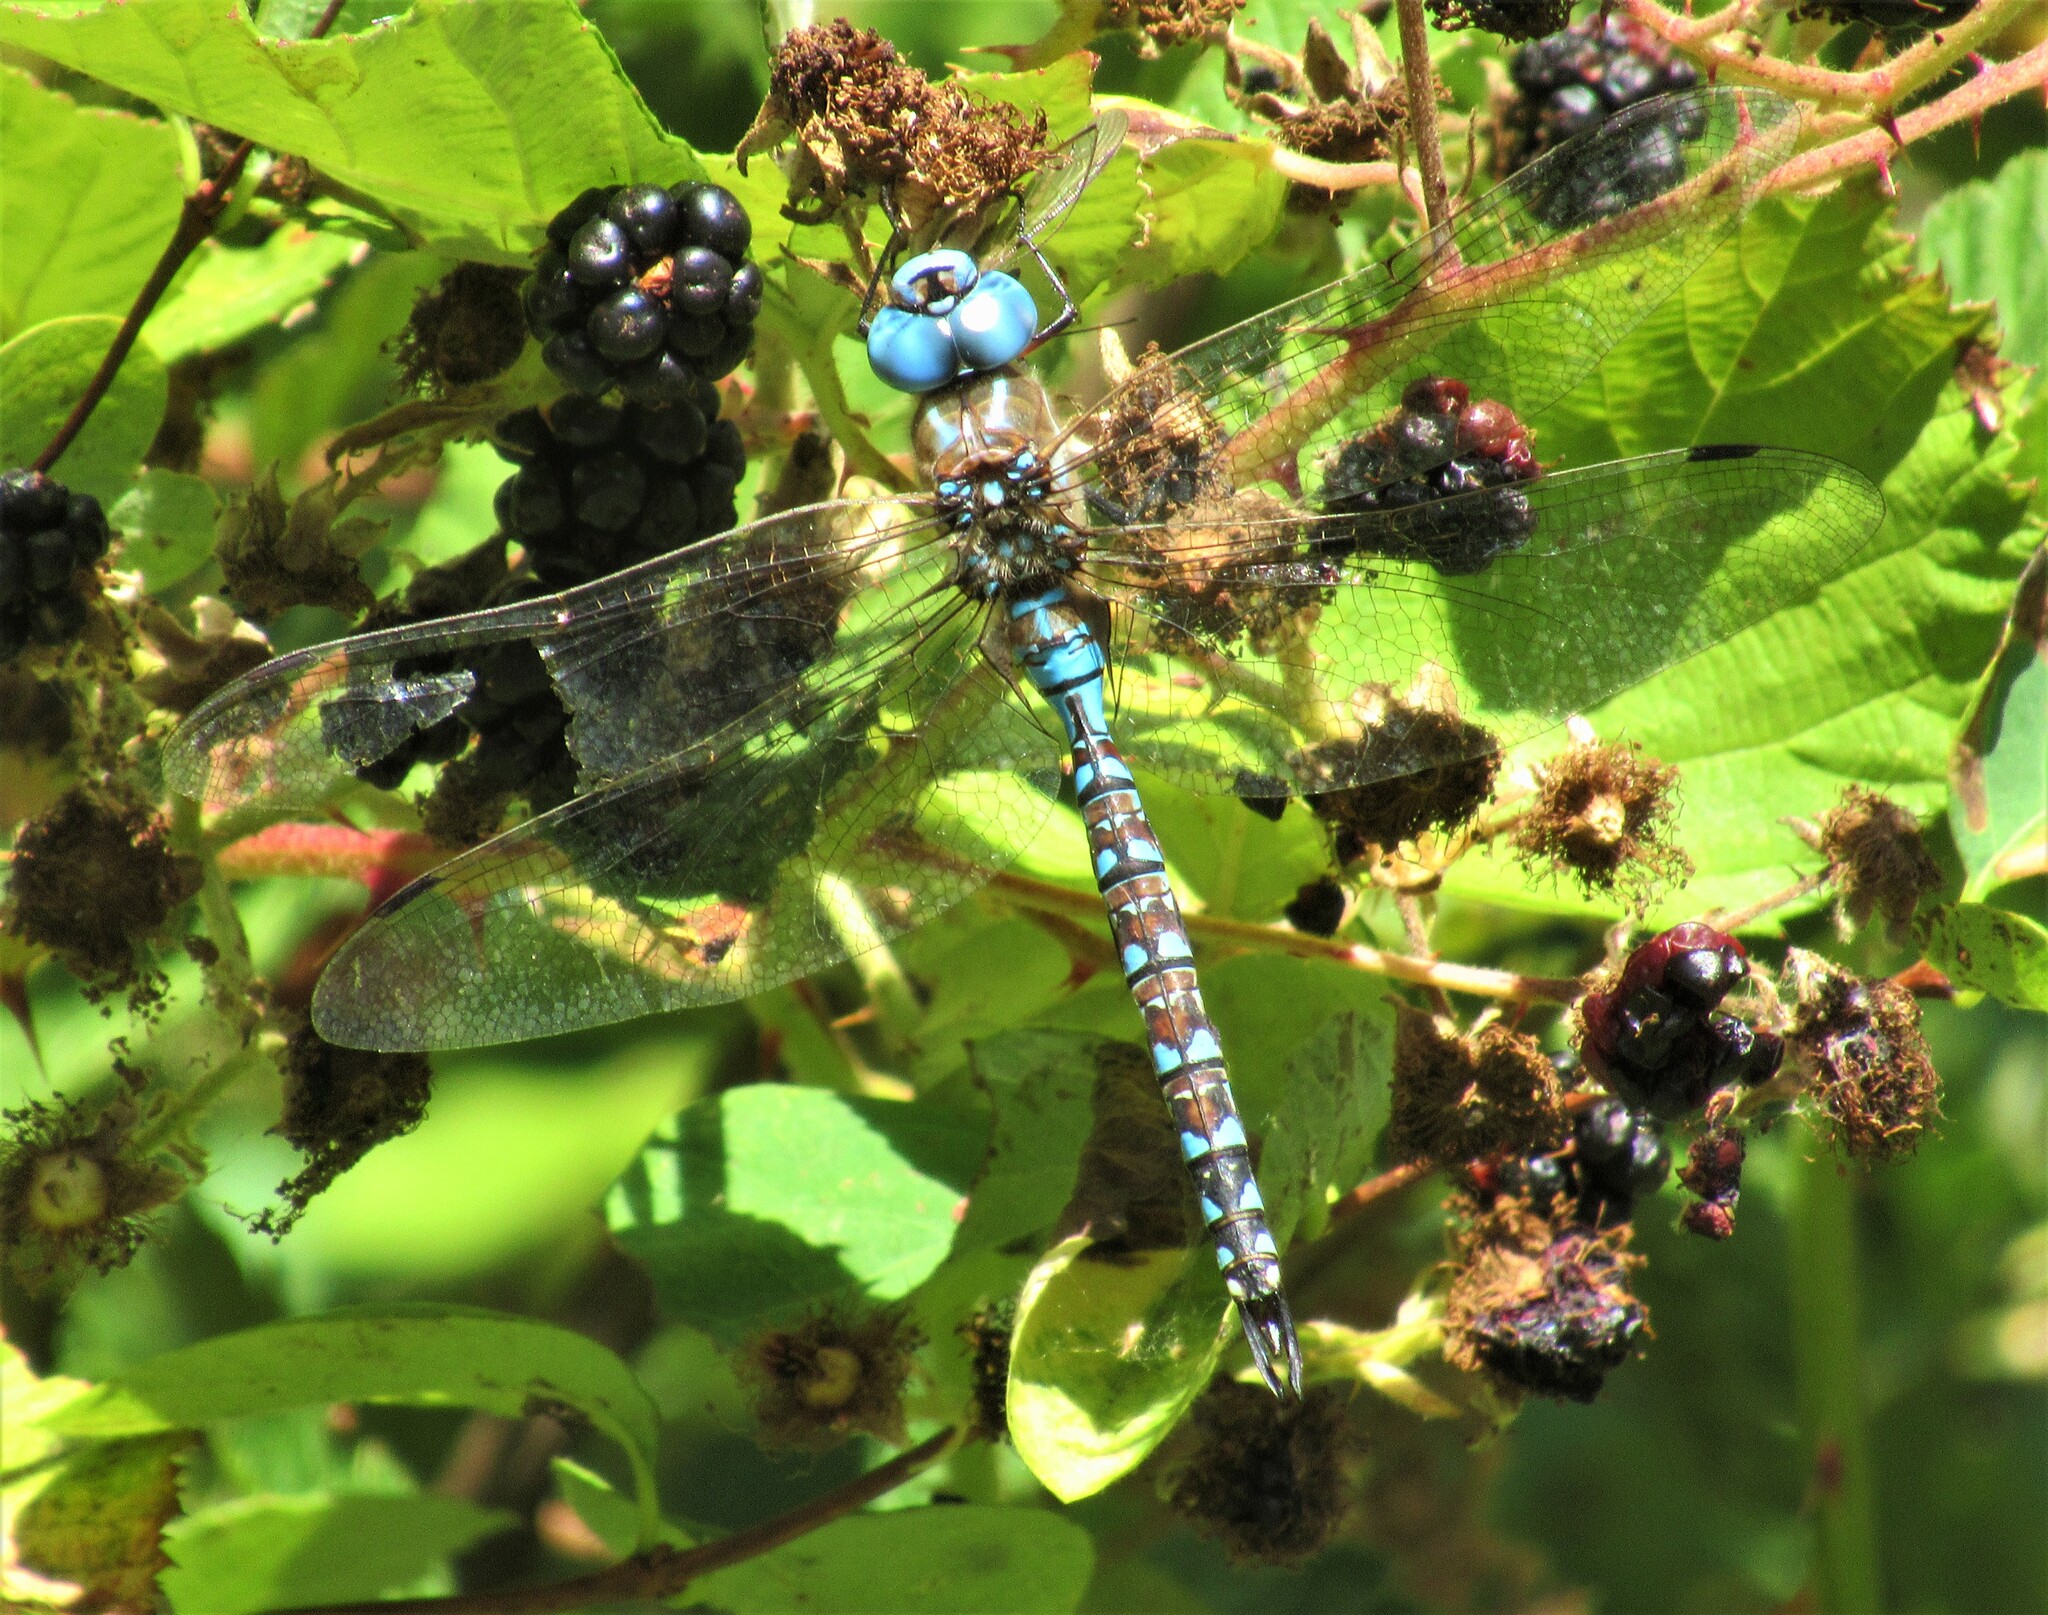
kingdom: Animalia
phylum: Arthropoda
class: Insecta
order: Odonata
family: Aeshnidae
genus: Rhionaeschna
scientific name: Rhionaeschna multicolor
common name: Blue-eyed darner
